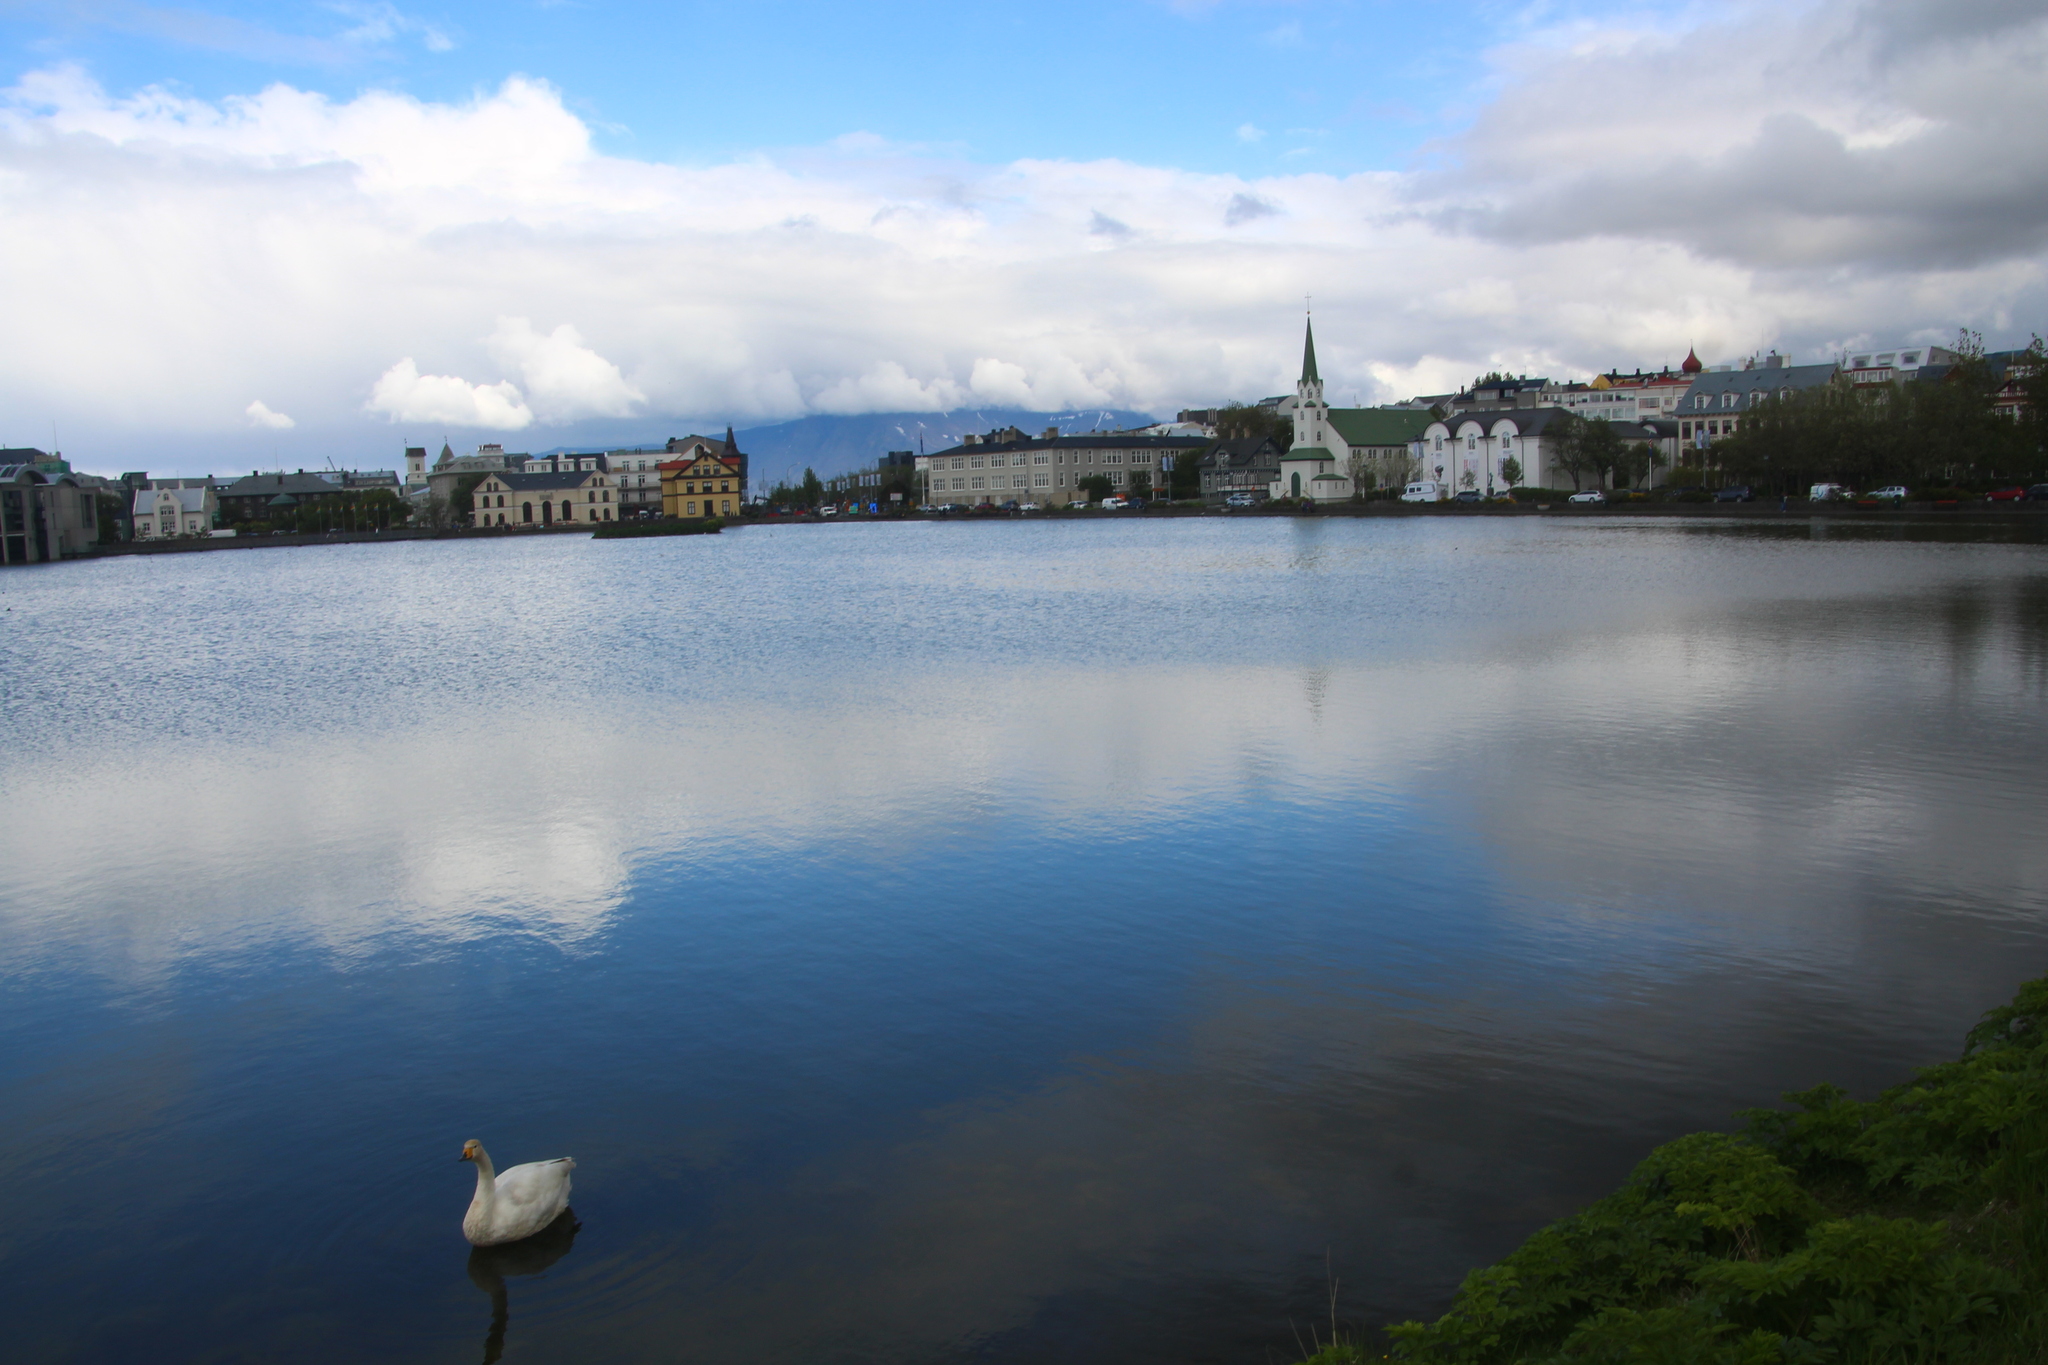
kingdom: Animalia
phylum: Chordata
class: Aves
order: Anseriformes
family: Anatidae
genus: Cygnus
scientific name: Cygnus cygnus
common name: Whooper swan
